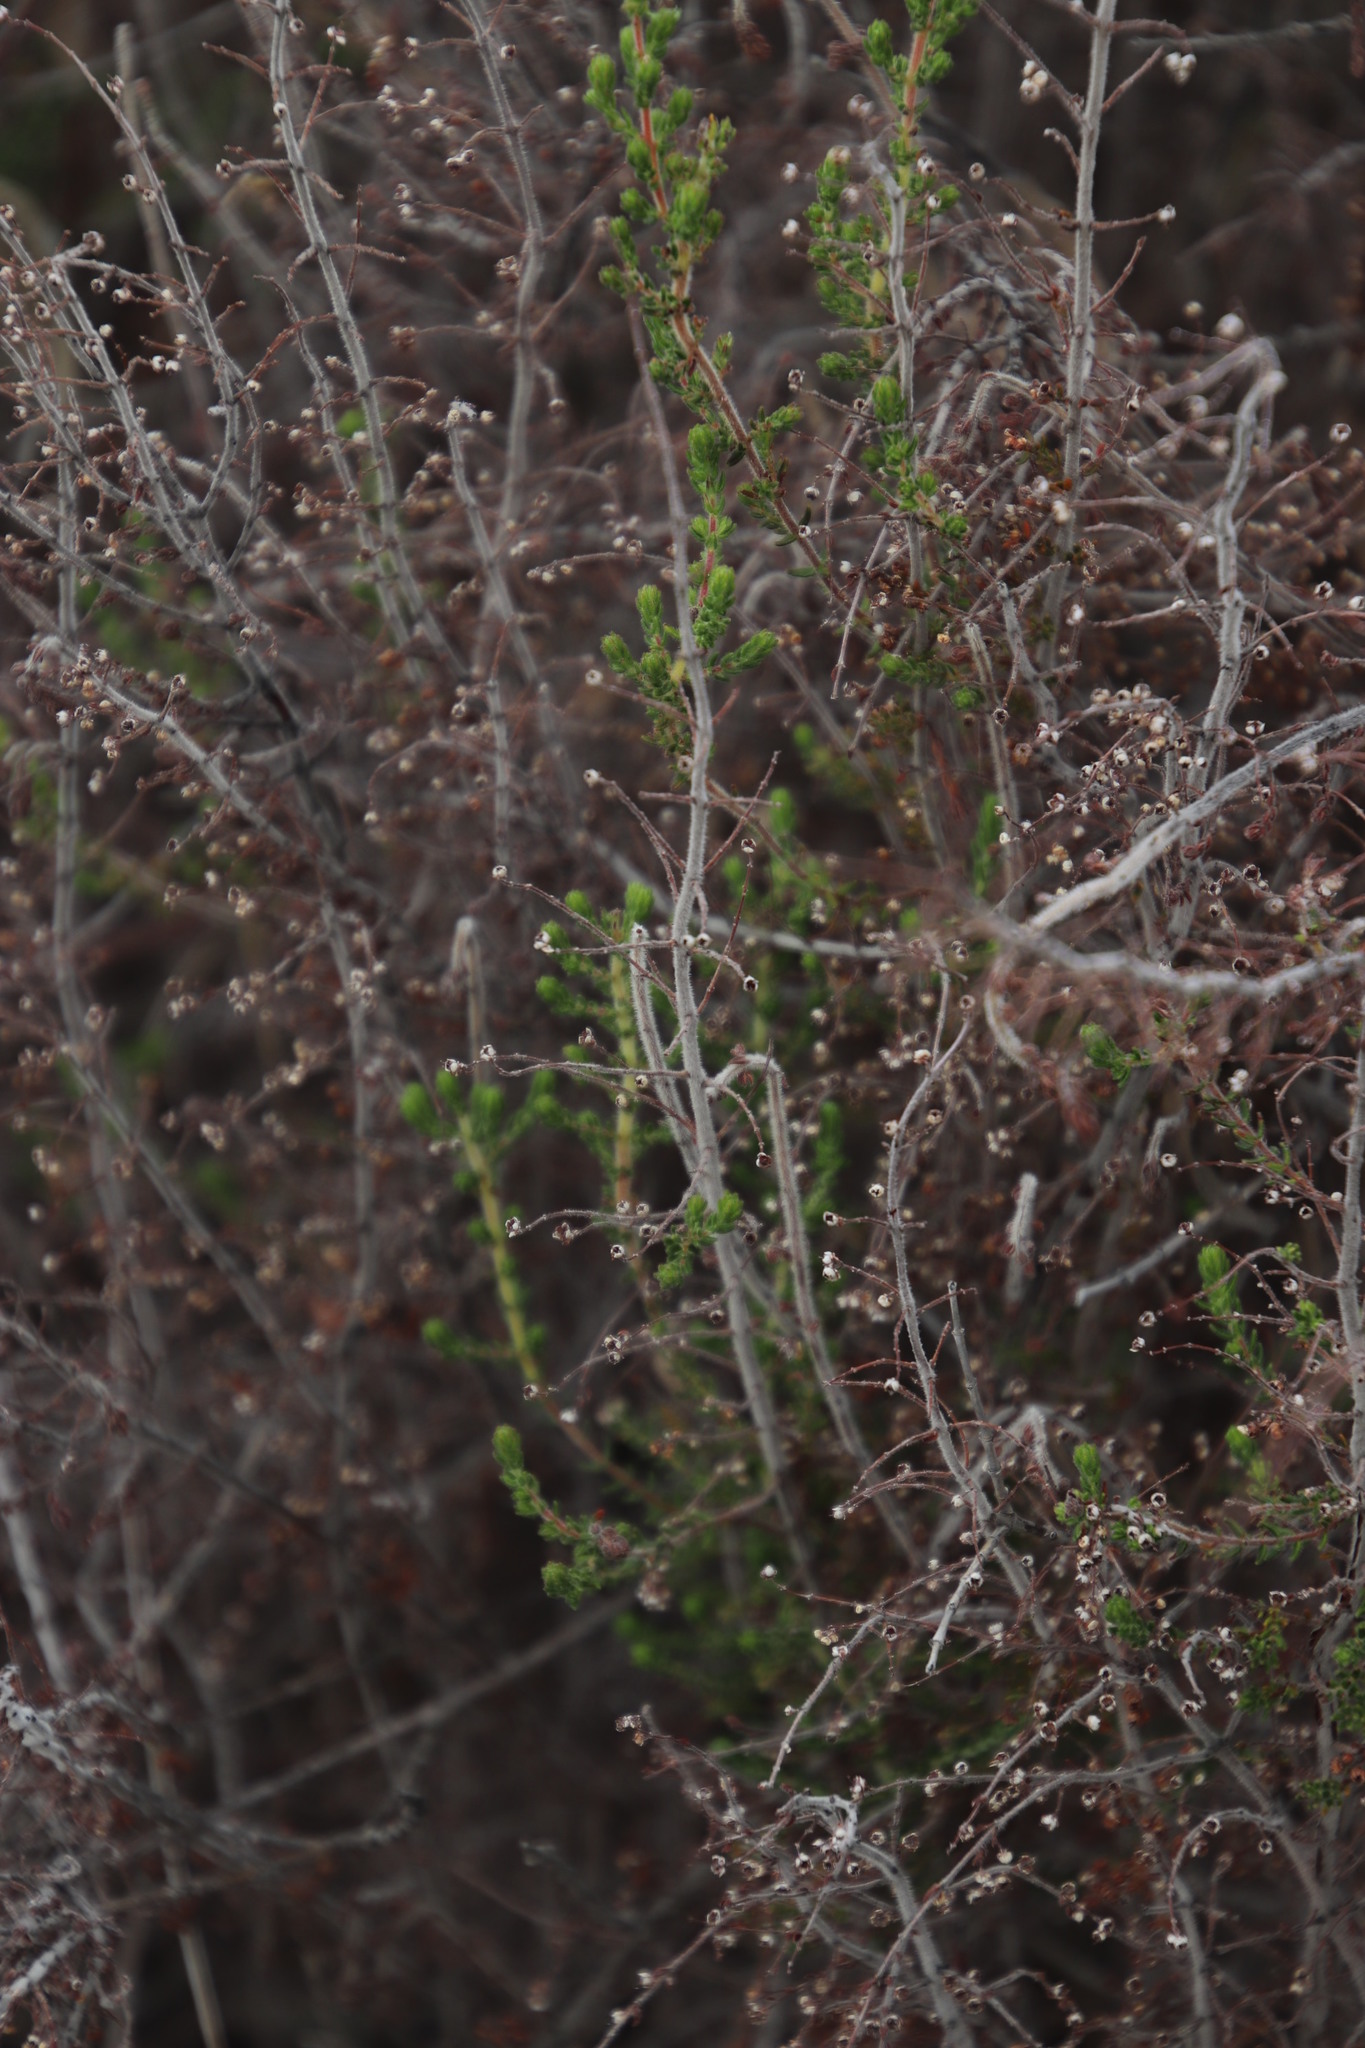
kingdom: Plantae
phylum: Tracheophyta
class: Magnoliopsida
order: Ericales
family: Ericaceae
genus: Erica
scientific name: Erica woodii
